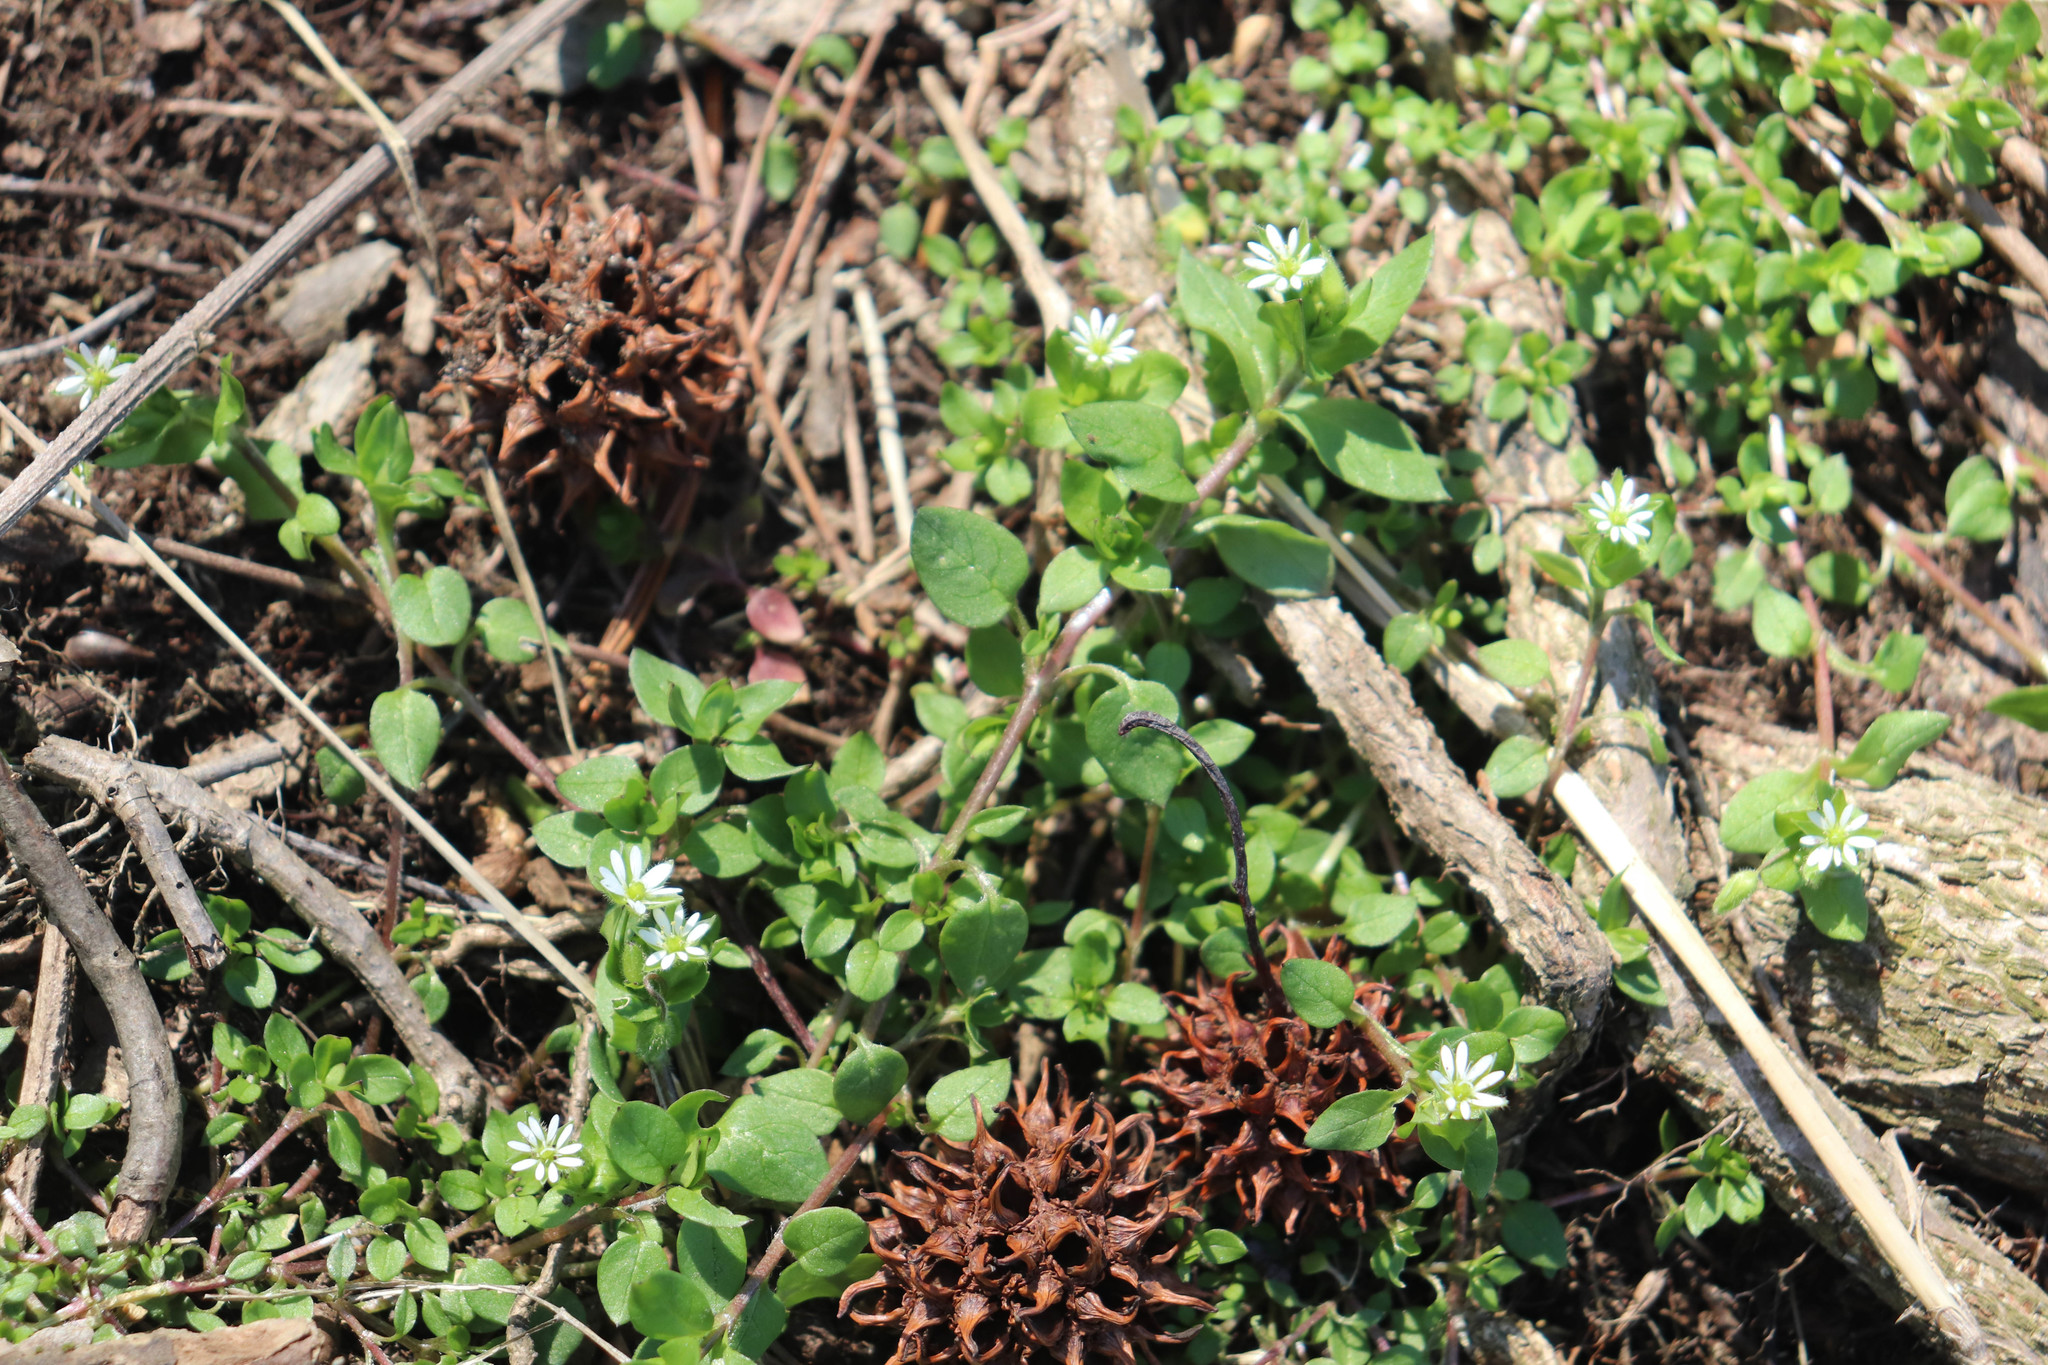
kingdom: Plantae
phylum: Tracheophyta
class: Magnoliopsida
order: Caryophyllales
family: Caryophyllaceae
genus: Stellaria
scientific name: Stellaria media
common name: Common chickweed
